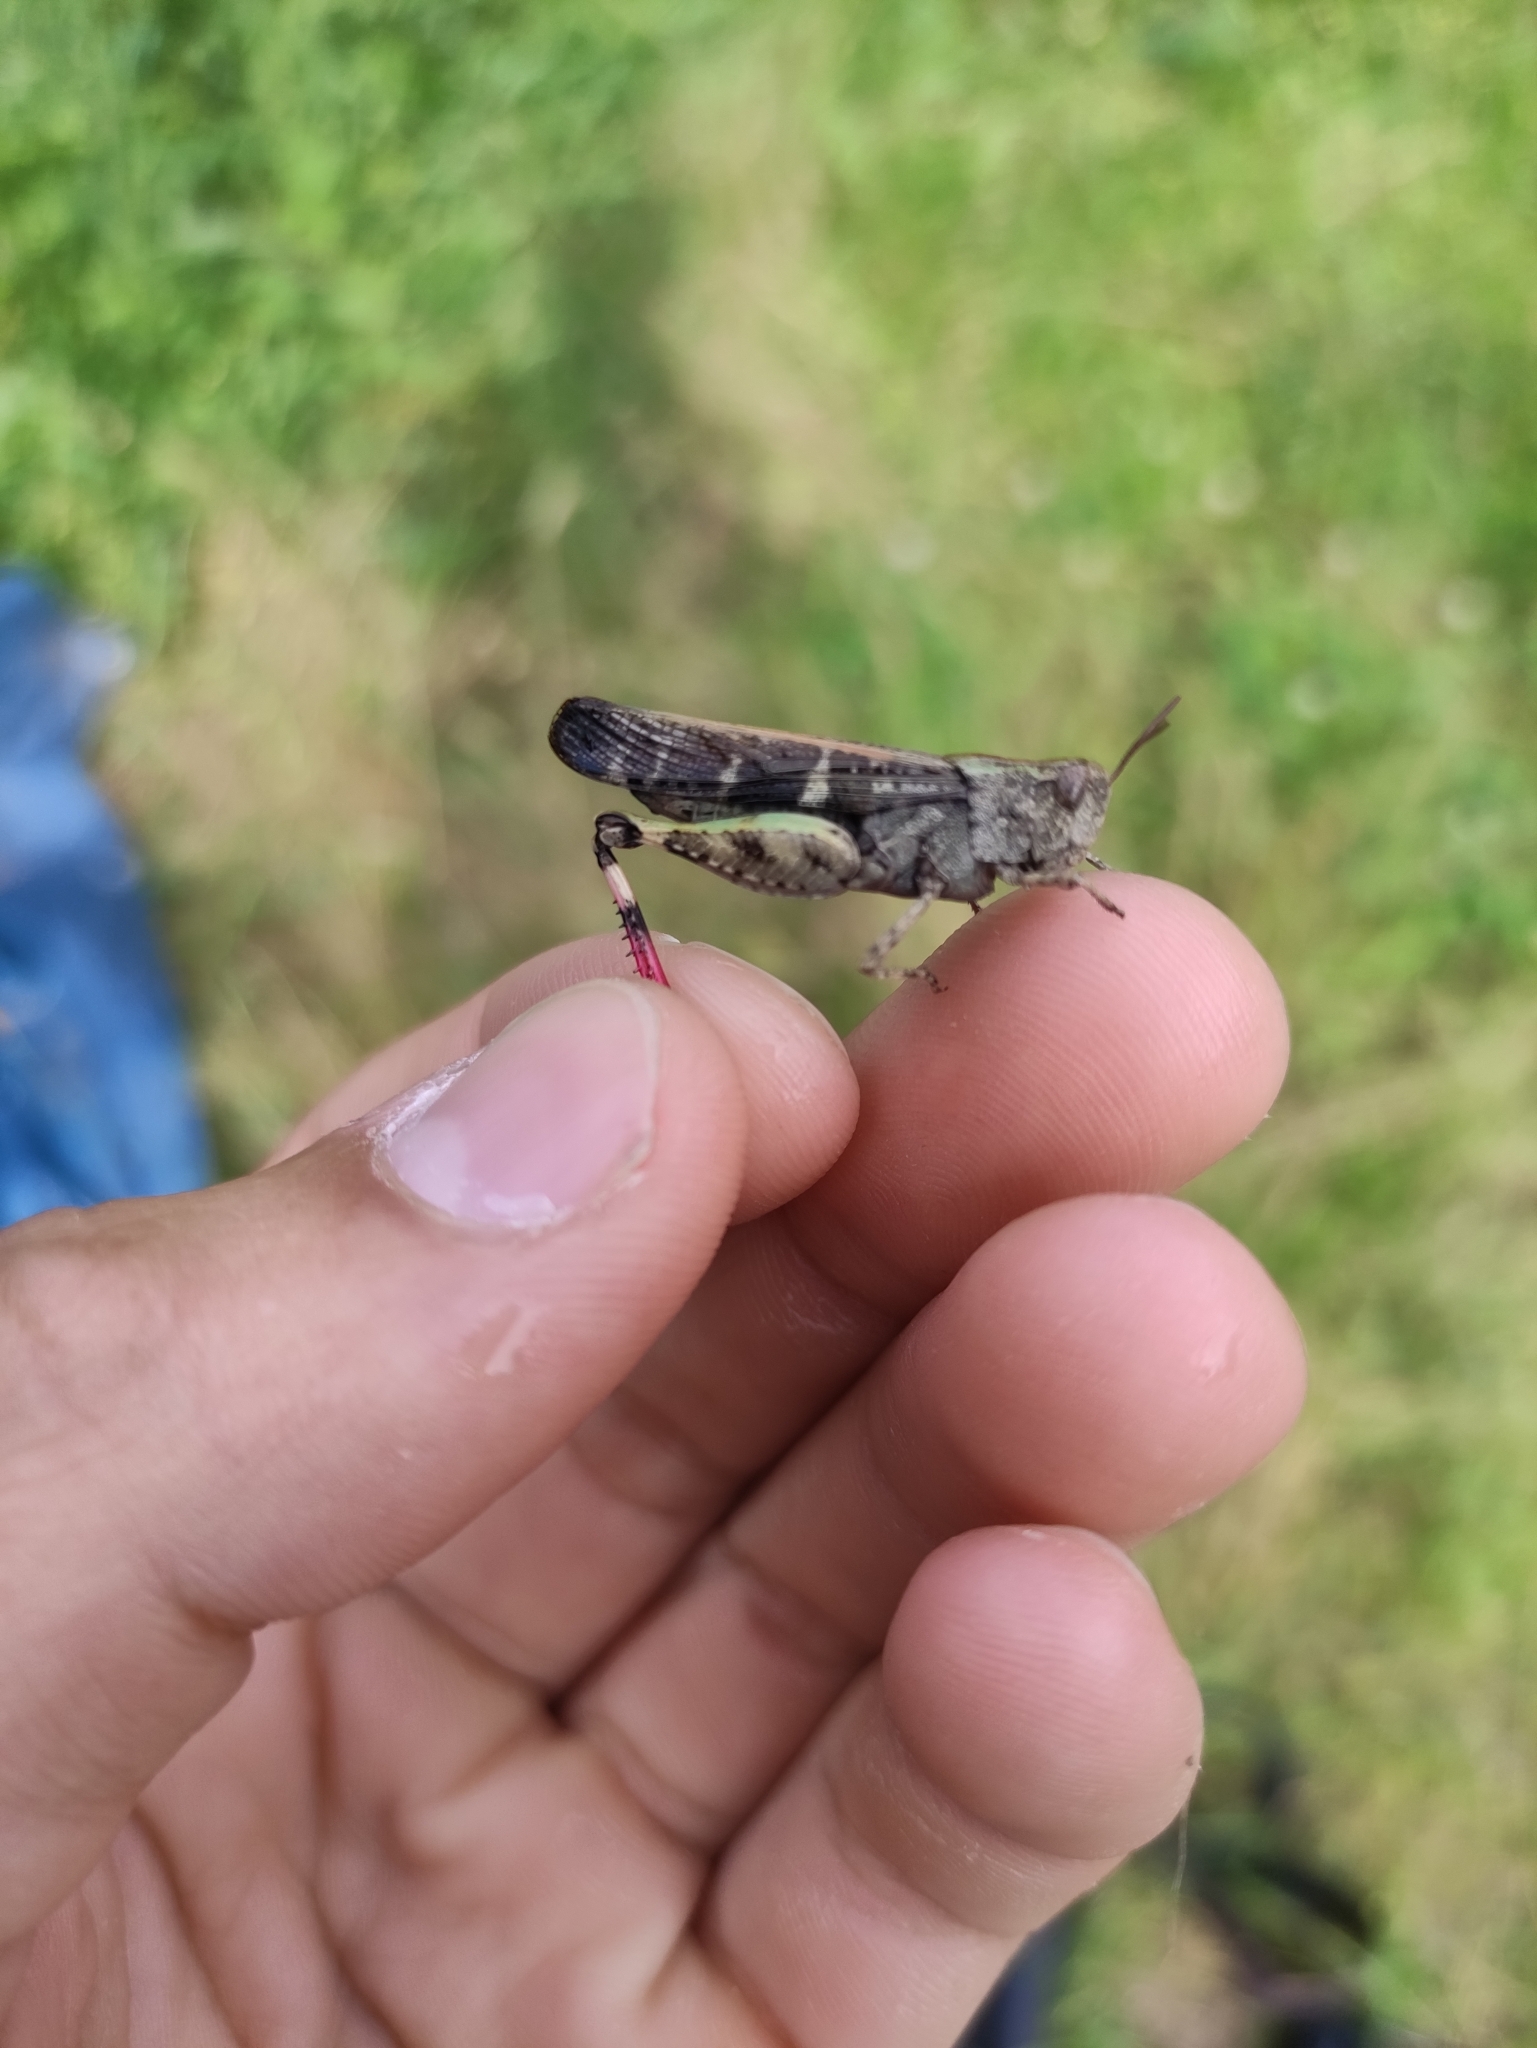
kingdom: Animalia
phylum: Arthropoda
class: Insecta
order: Orthoptera
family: Acrididae
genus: Aiolopus
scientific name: Aiolopus strepens
